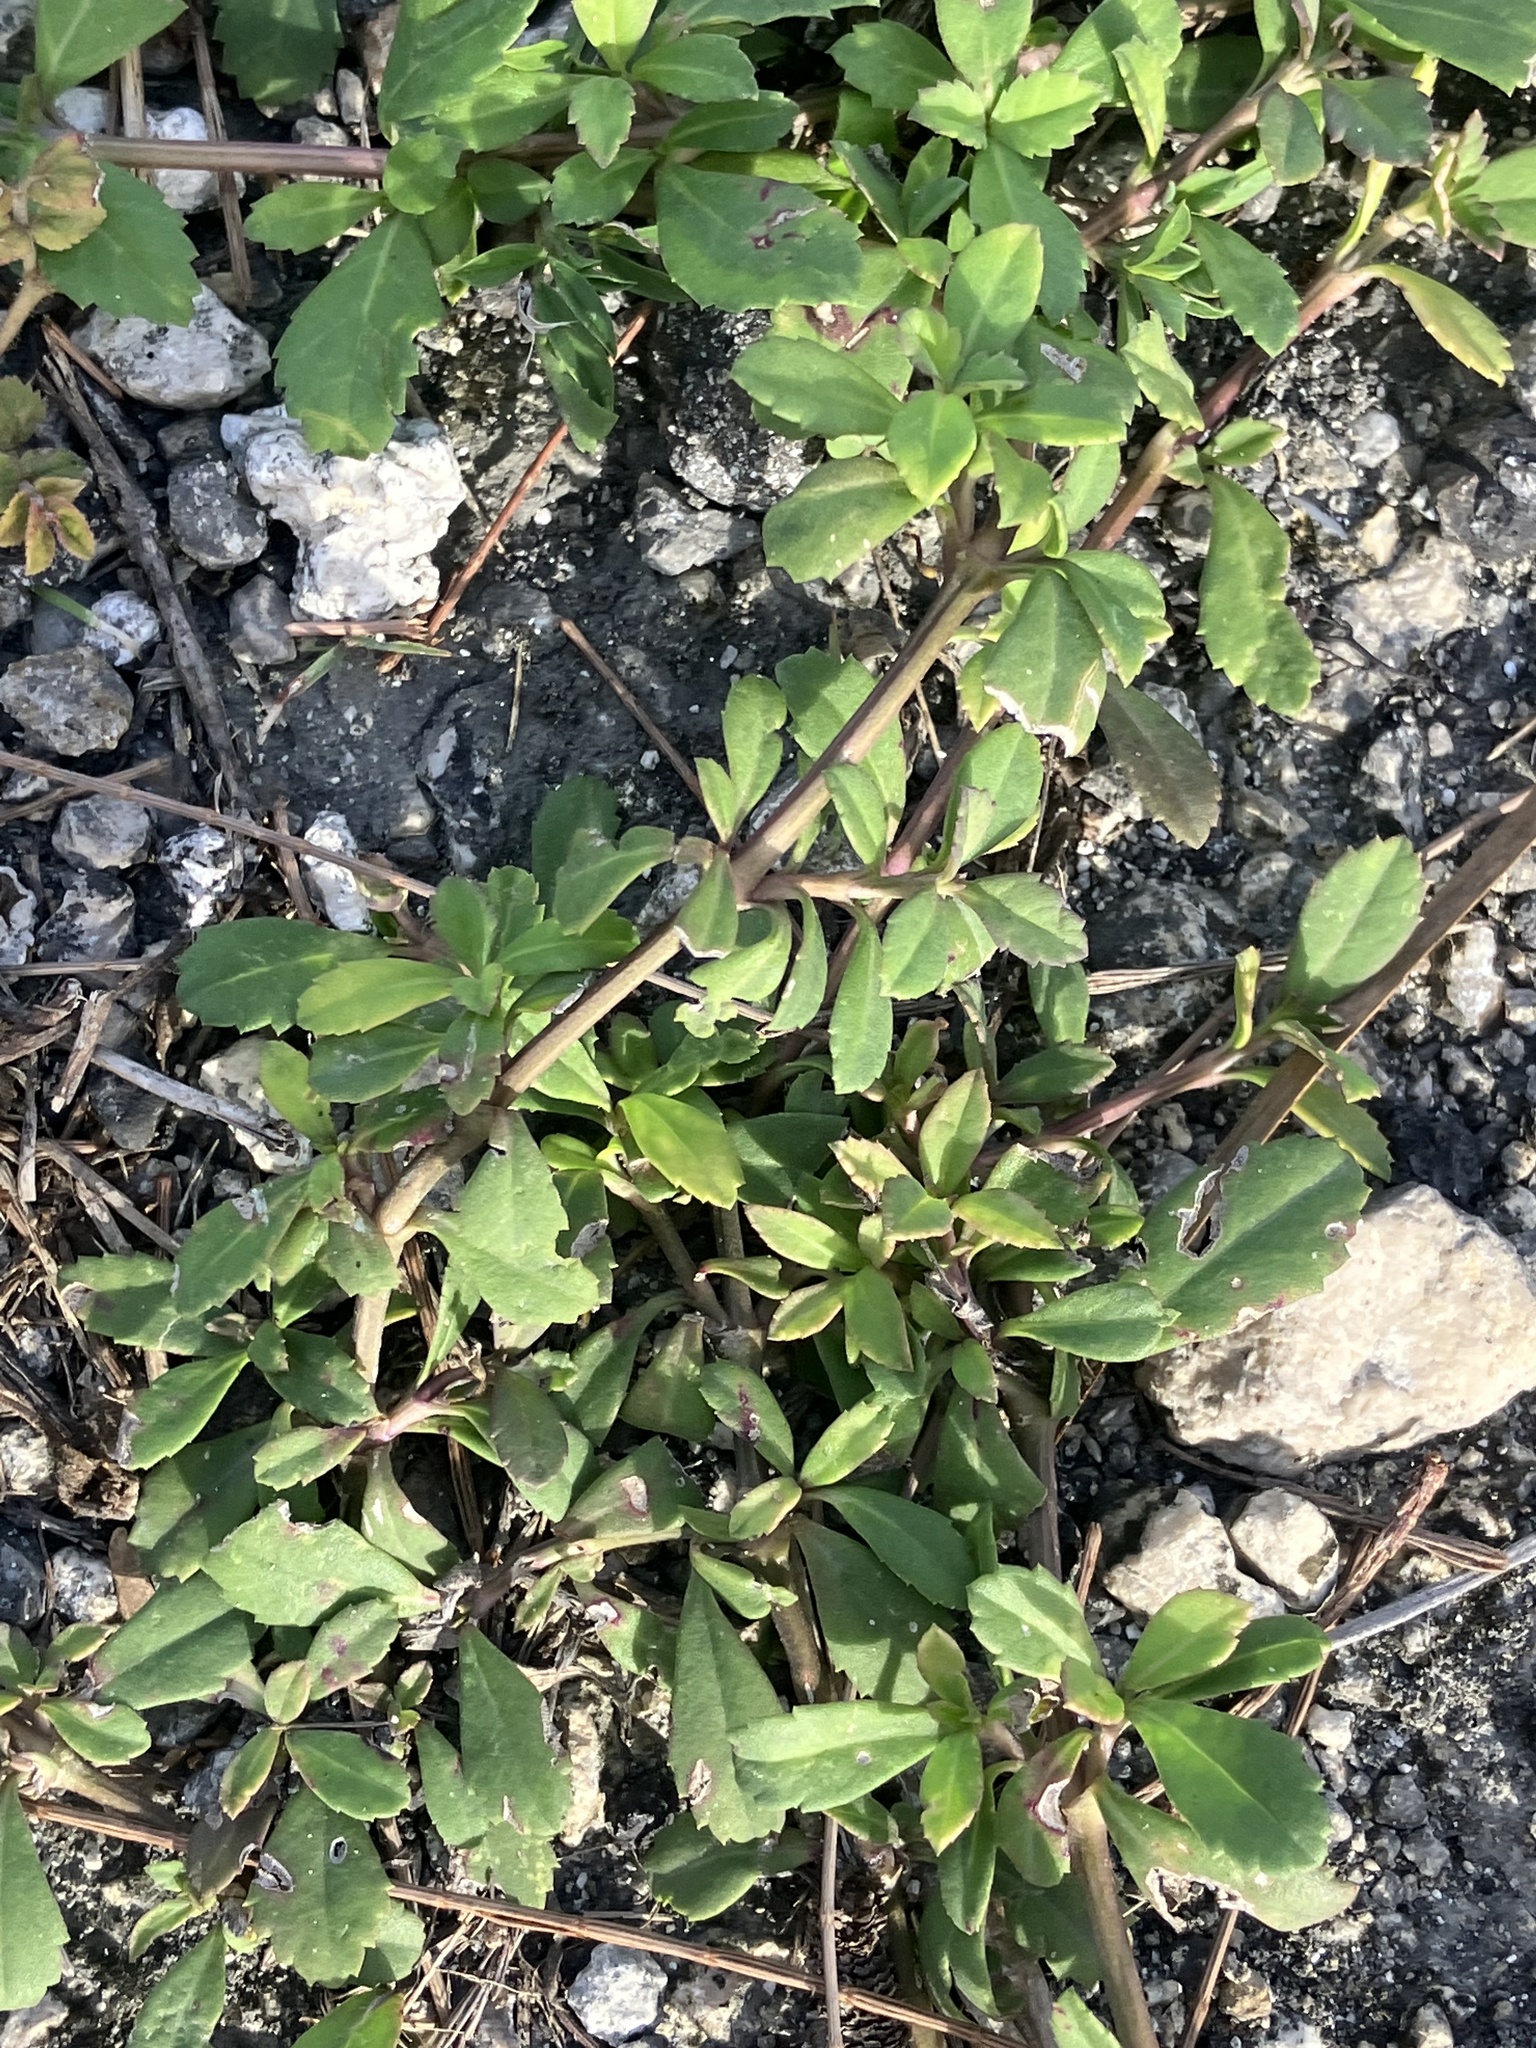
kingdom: Plantae
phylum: Tracheophyta
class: Magnoliopsida
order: Lamiales
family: Verbenaceae
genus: Phyla
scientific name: Phyla nodiflora
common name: Frogfruit
